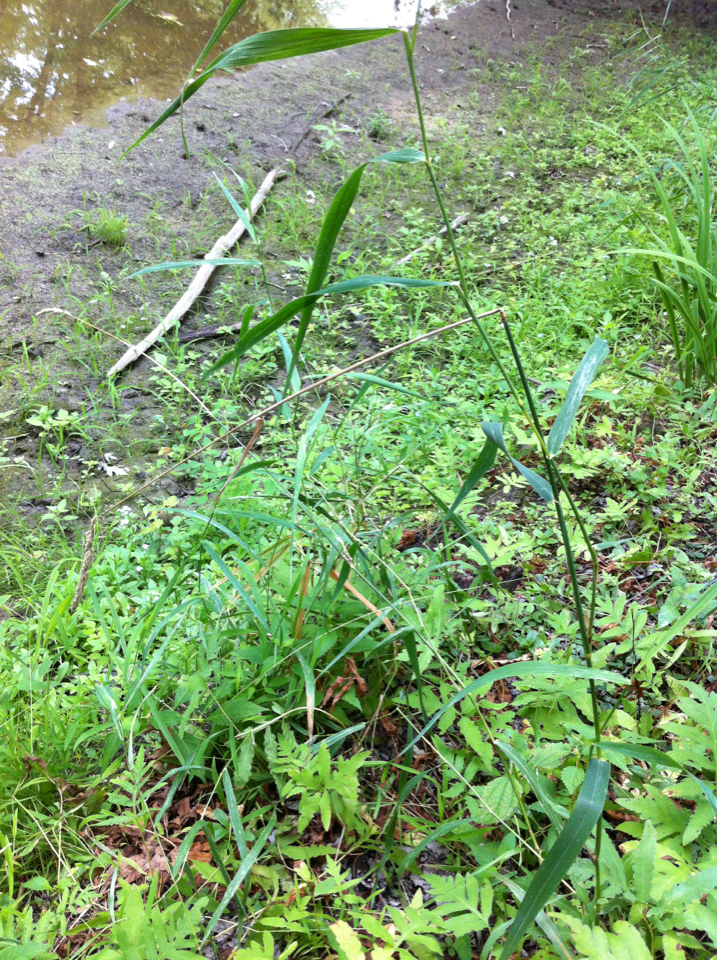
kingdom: Plantae
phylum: Tracheophyta
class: Liliopsida
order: Poales
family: Poaceae
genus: Phalaris
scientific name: Phalaris arundinacea
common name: Reed canary-grass
